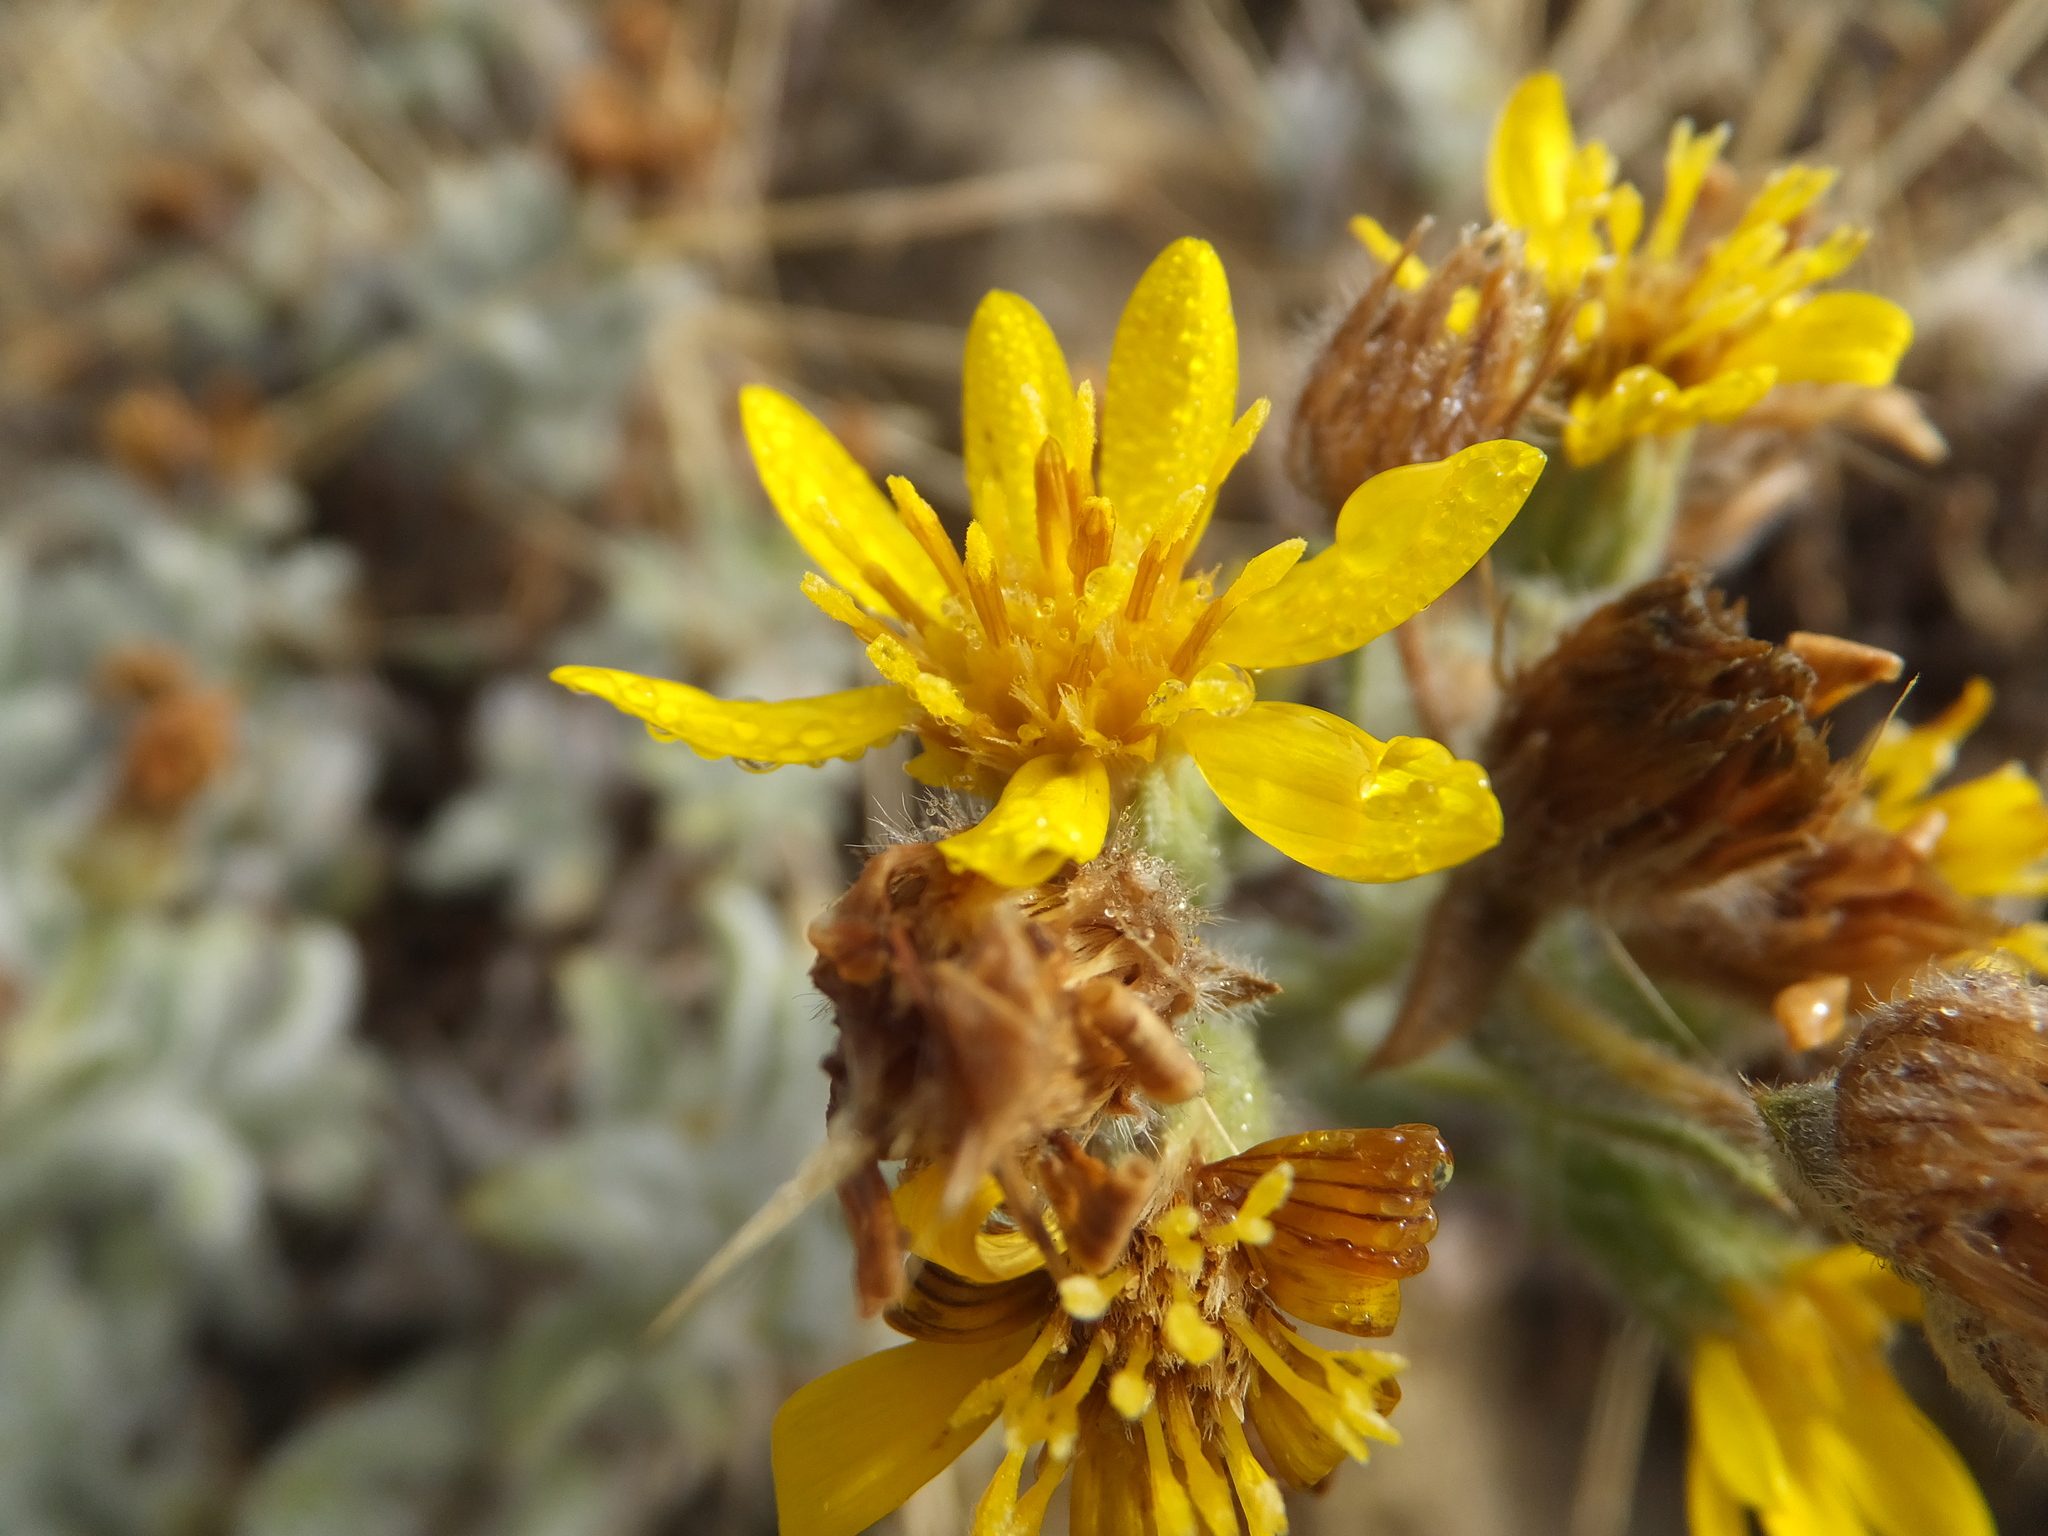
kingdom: Plantae
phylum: Tracheophyta
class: Magnoliopsida
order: Asterales
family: Asteraceae
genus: Heterotheca
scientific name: Heterotheca sessiliflora
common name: Sessile-flower golden-aster
